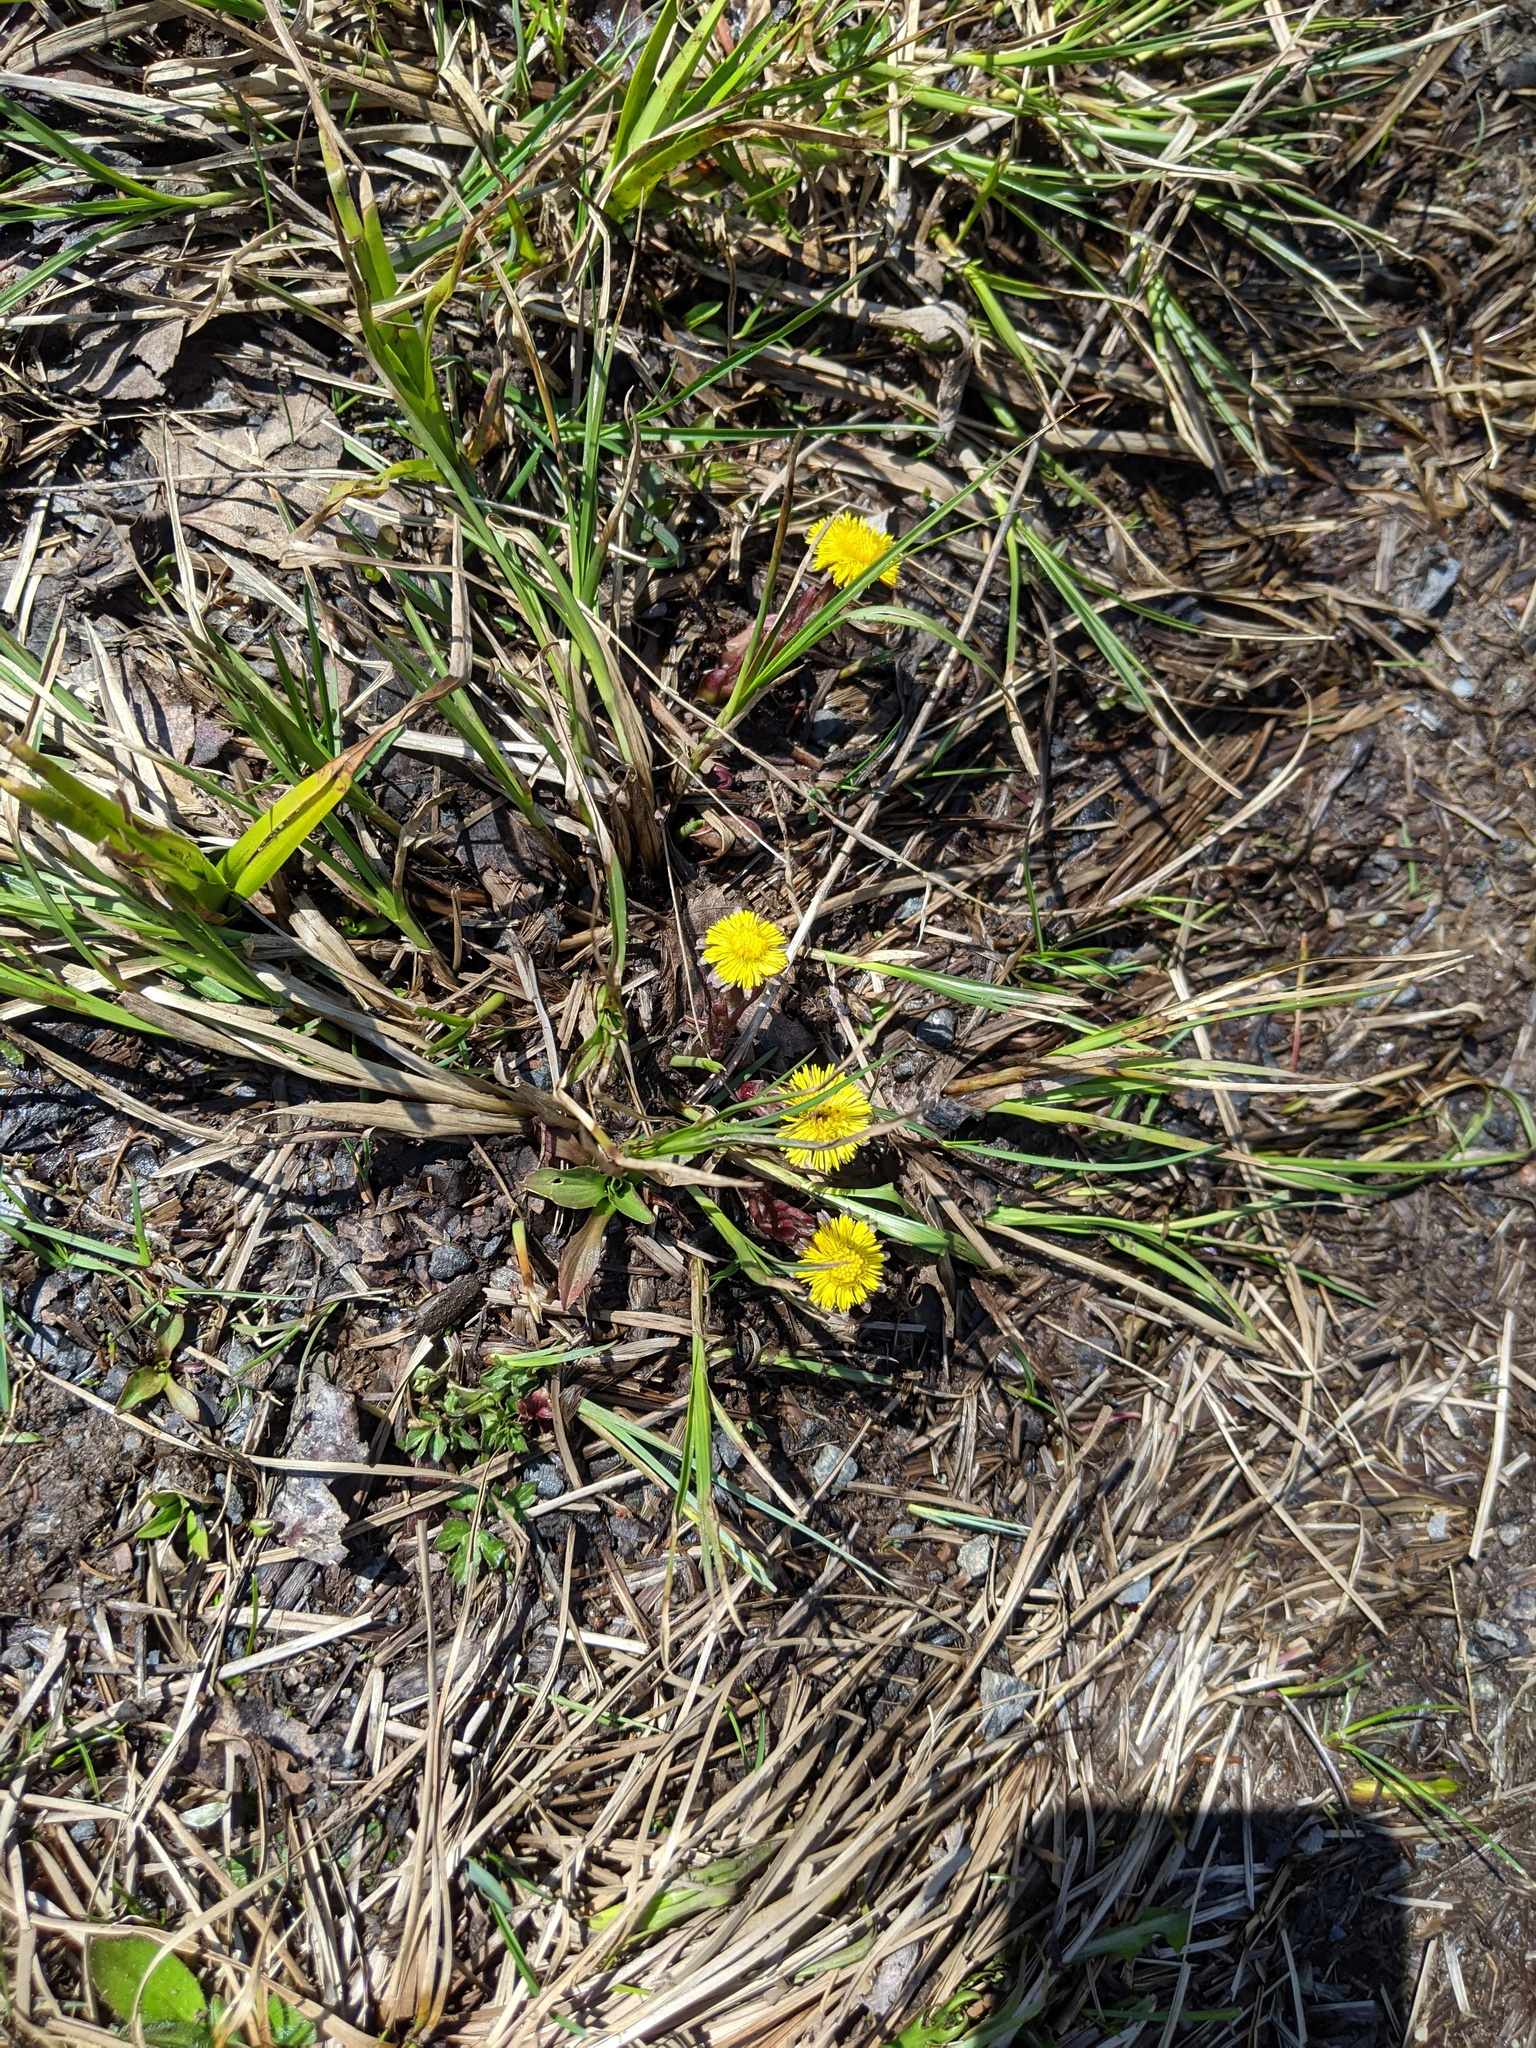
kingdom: Plantae
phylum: Tracheophyta
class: Magnoliopsida
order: Asterales
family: Asteraceae
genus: Tussilago
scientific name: Tussilago farfara
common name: Coltsfoot
